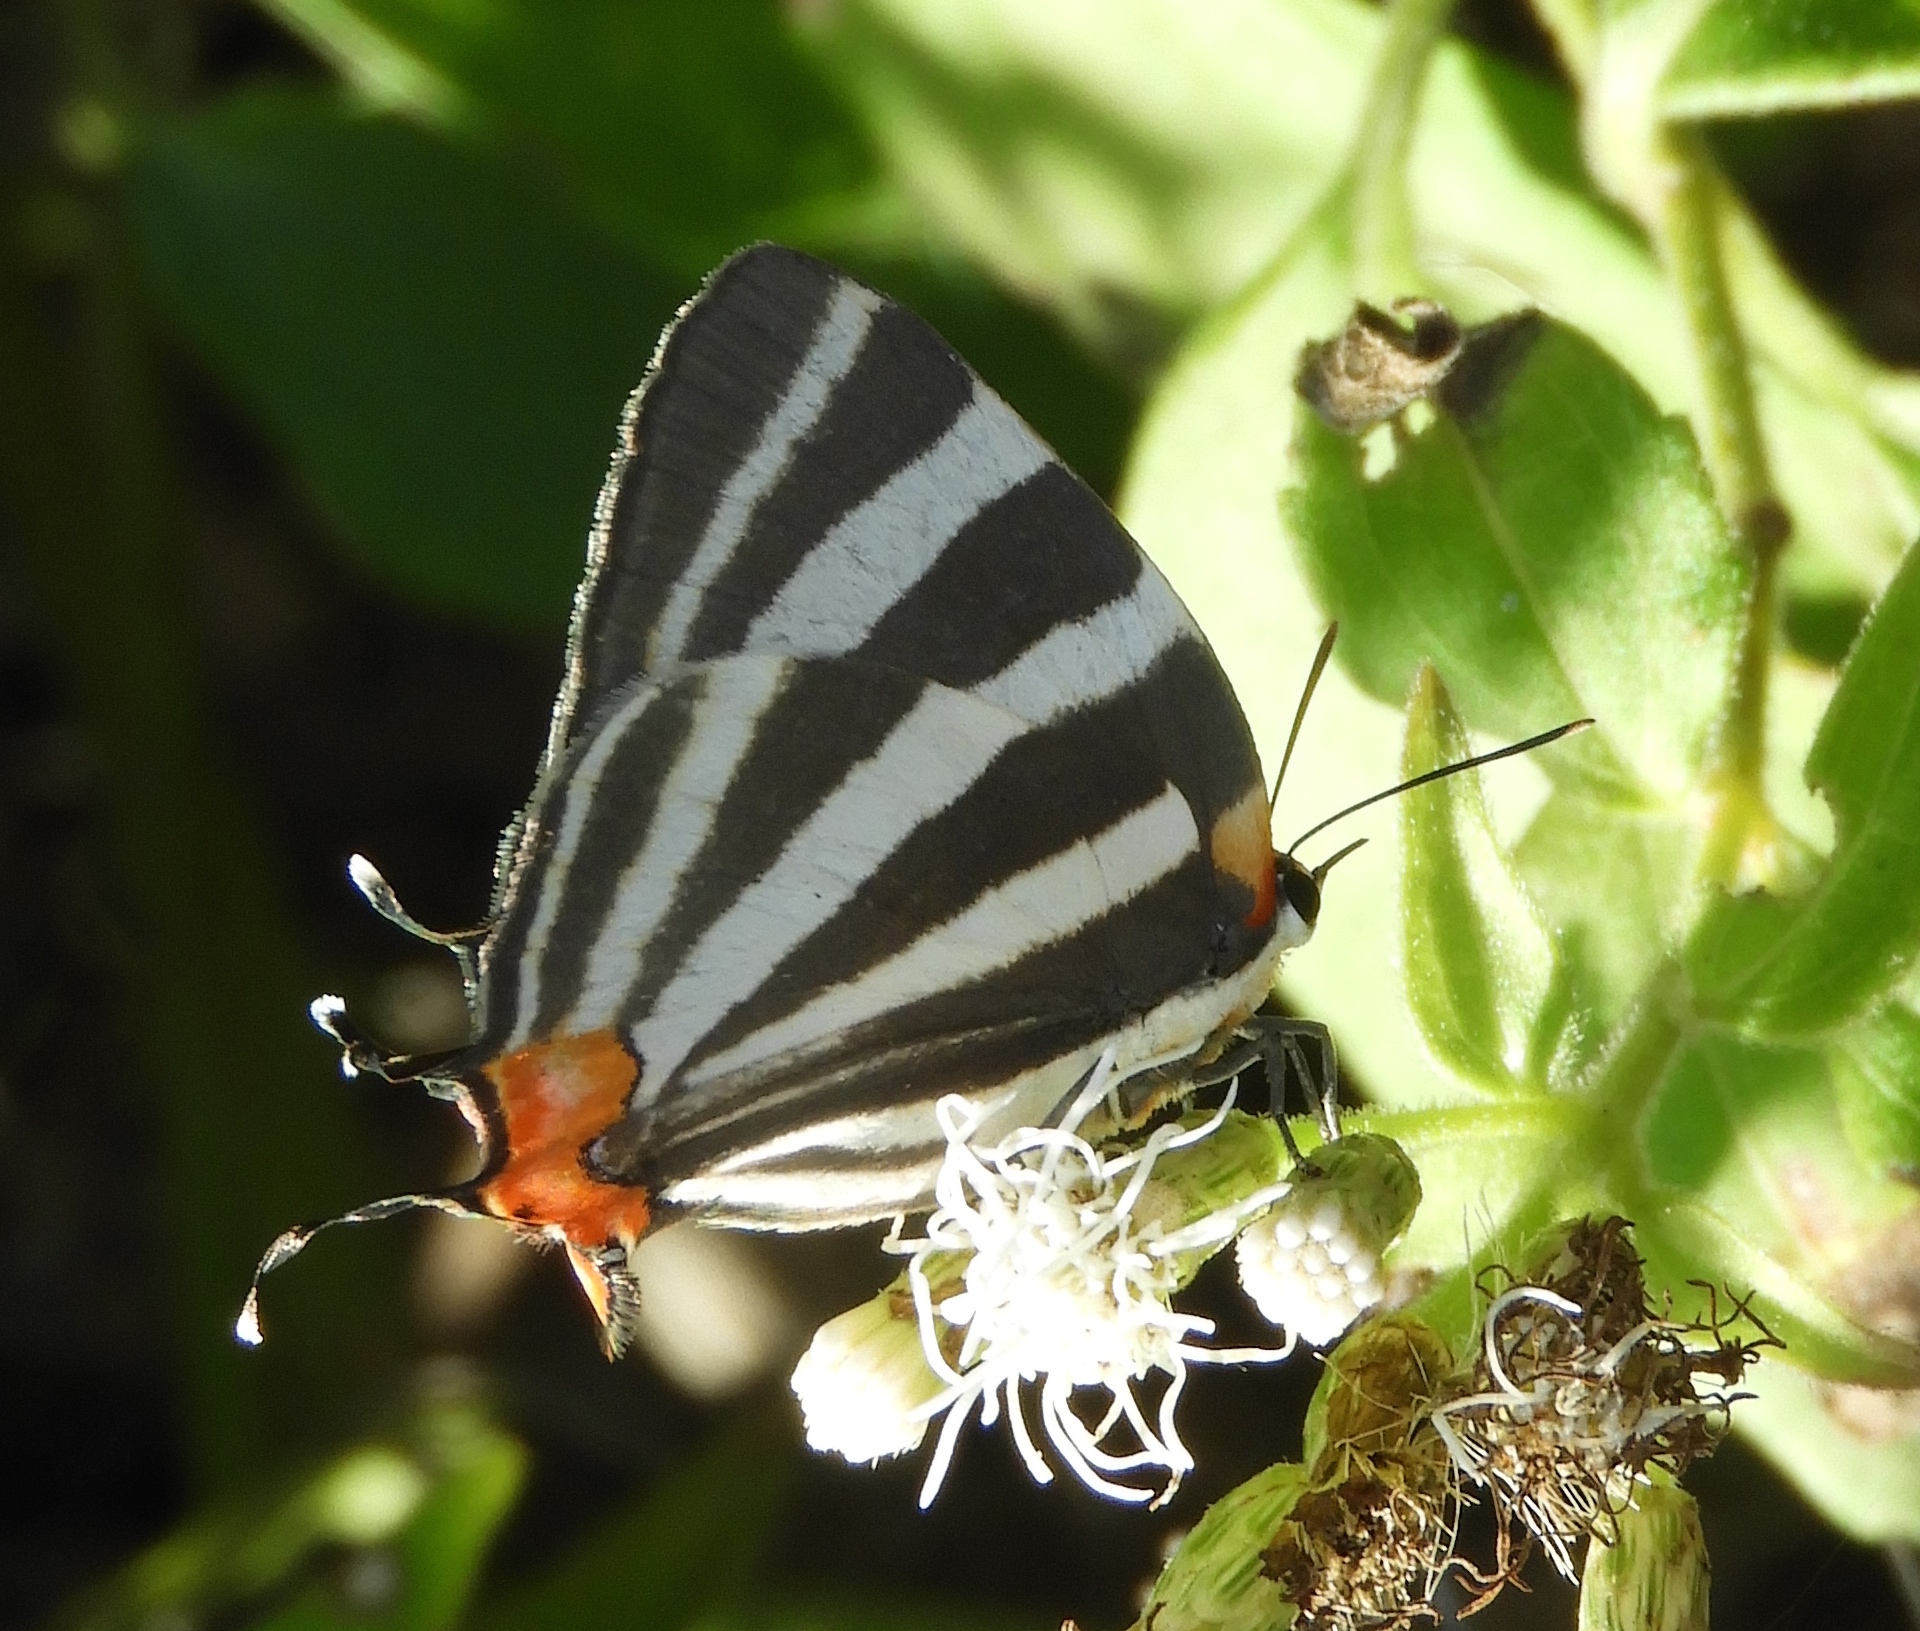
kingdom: Animalia
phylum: Arthropoda
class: Insecta
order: Lepidoptera
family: Lycaenidae
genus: Thecla
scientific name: Thecla bathildis
